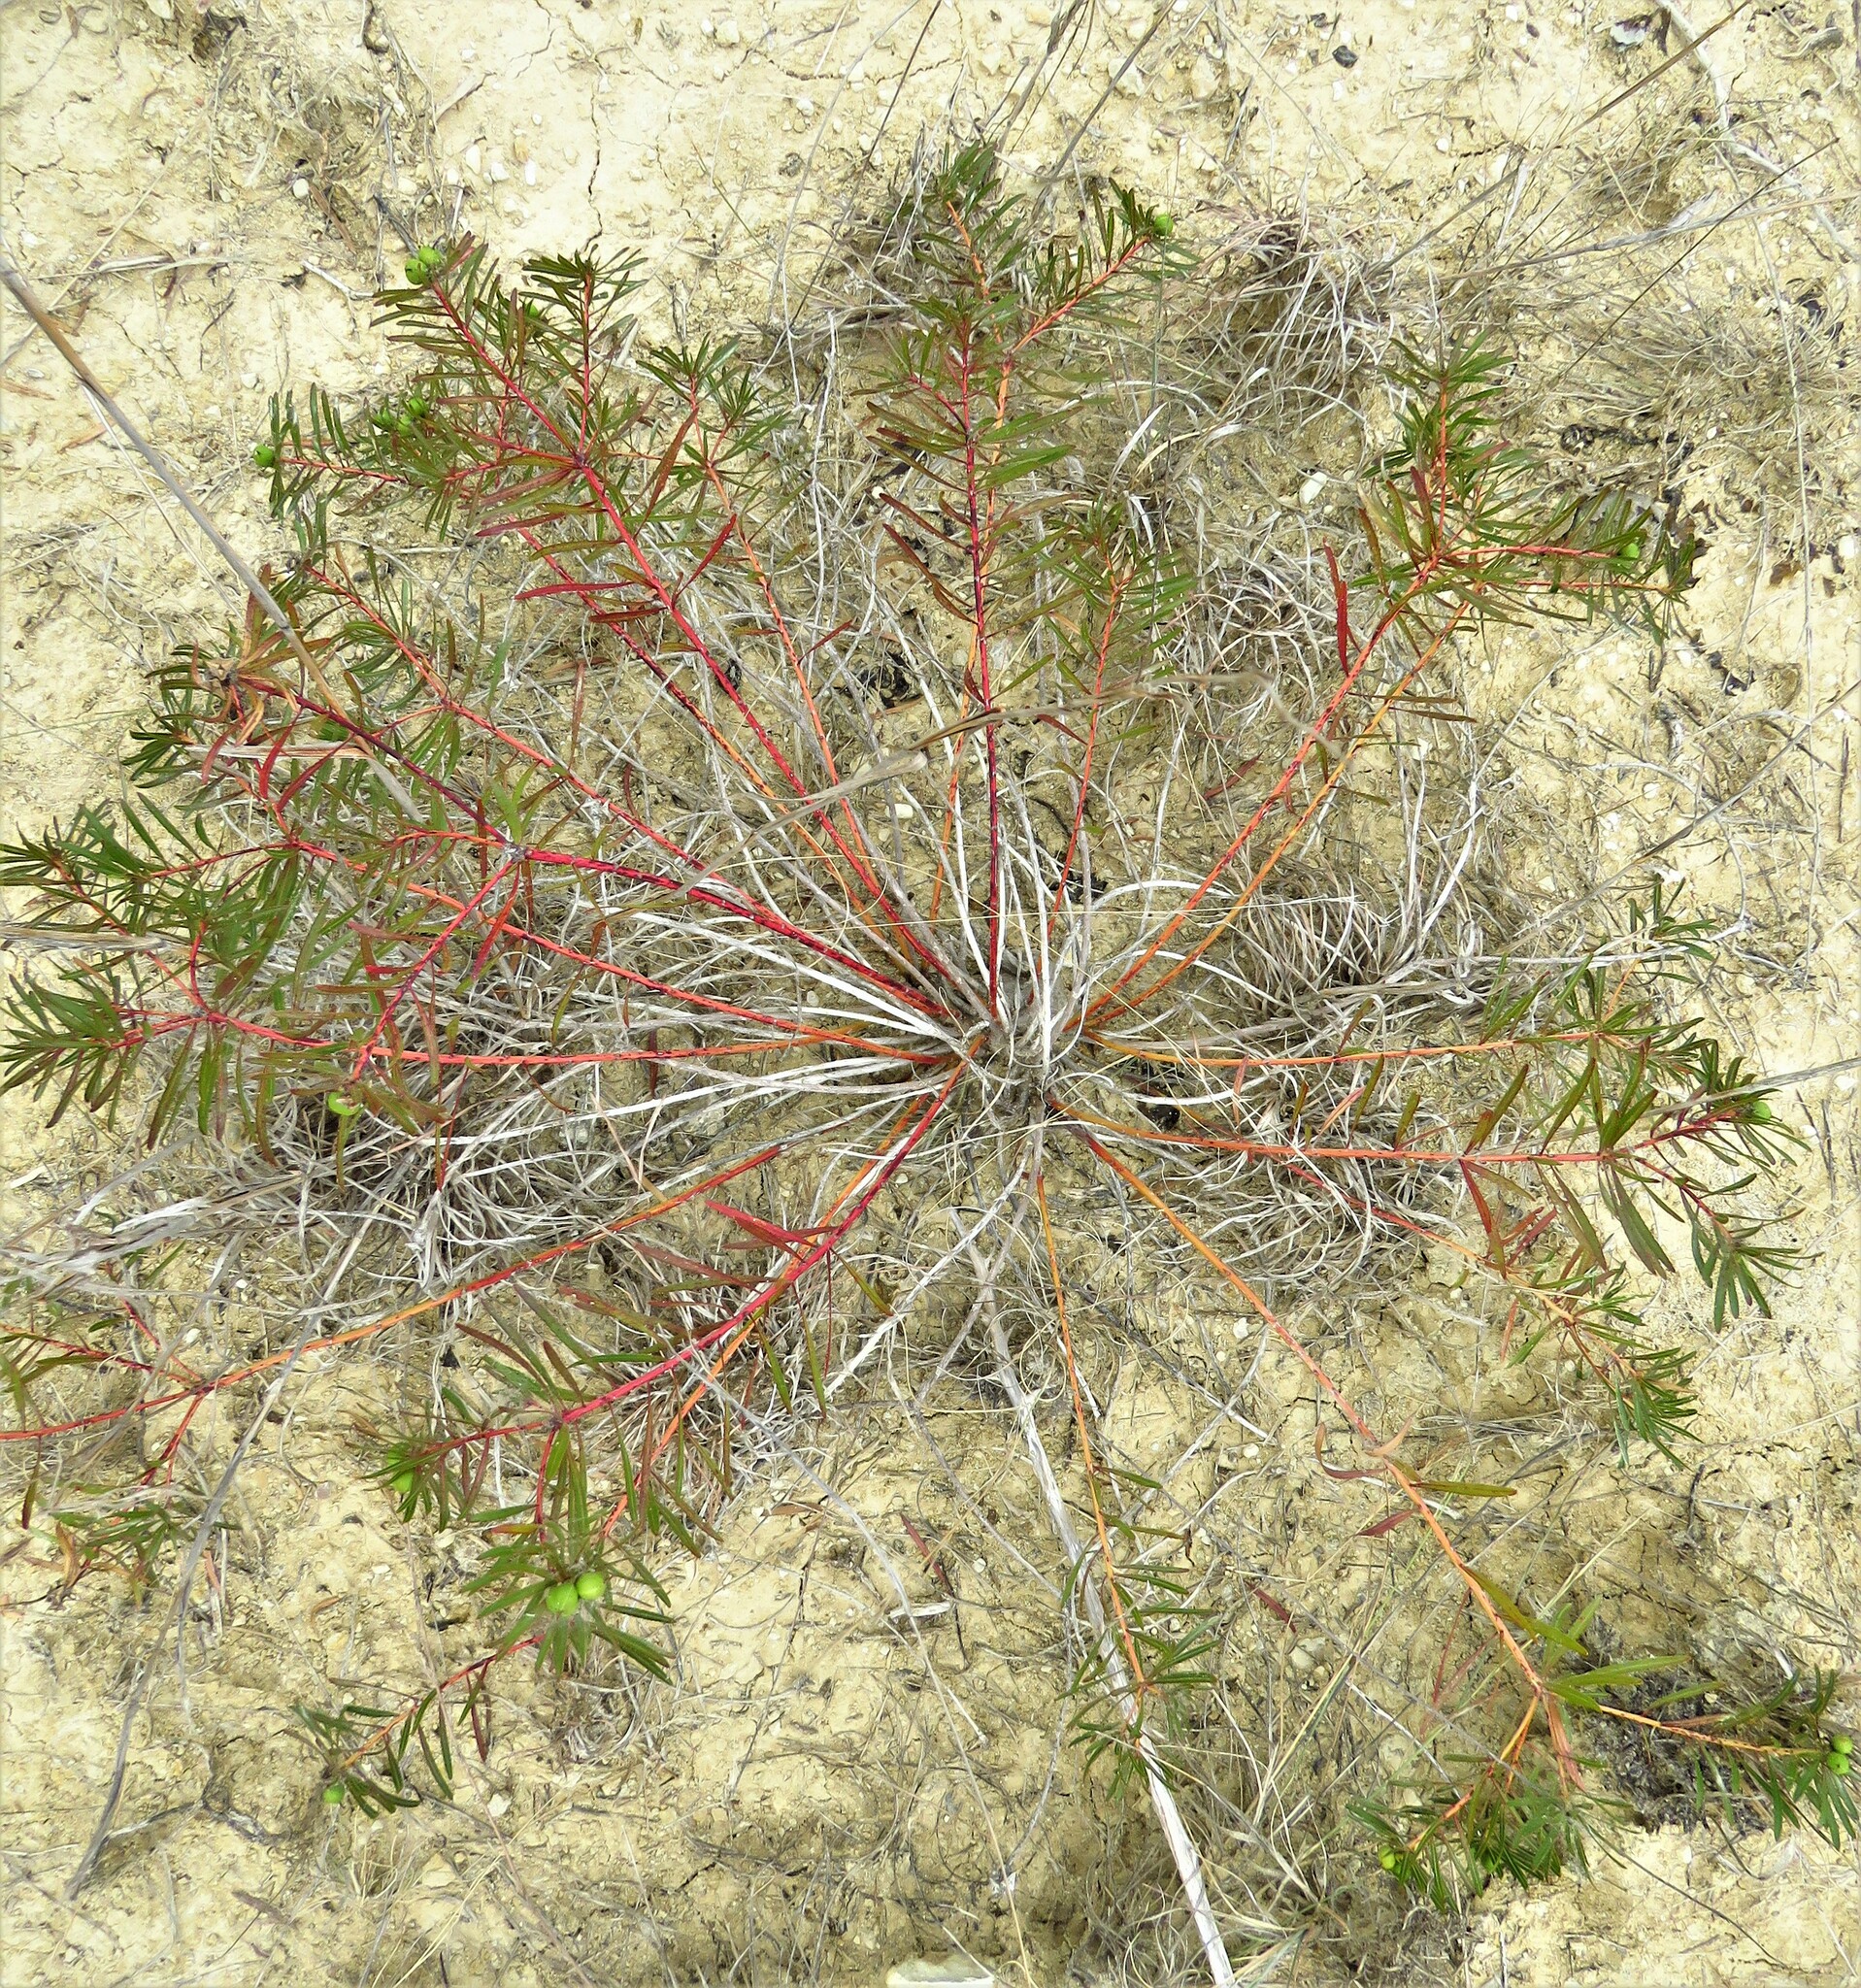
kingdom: Plantae
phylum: Tracheophyta
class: Magnoliopsida
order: Malpighiales
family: Euphorbiaceae
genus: Stillingia
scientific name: Stillingia texana
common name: Texas stillingia
